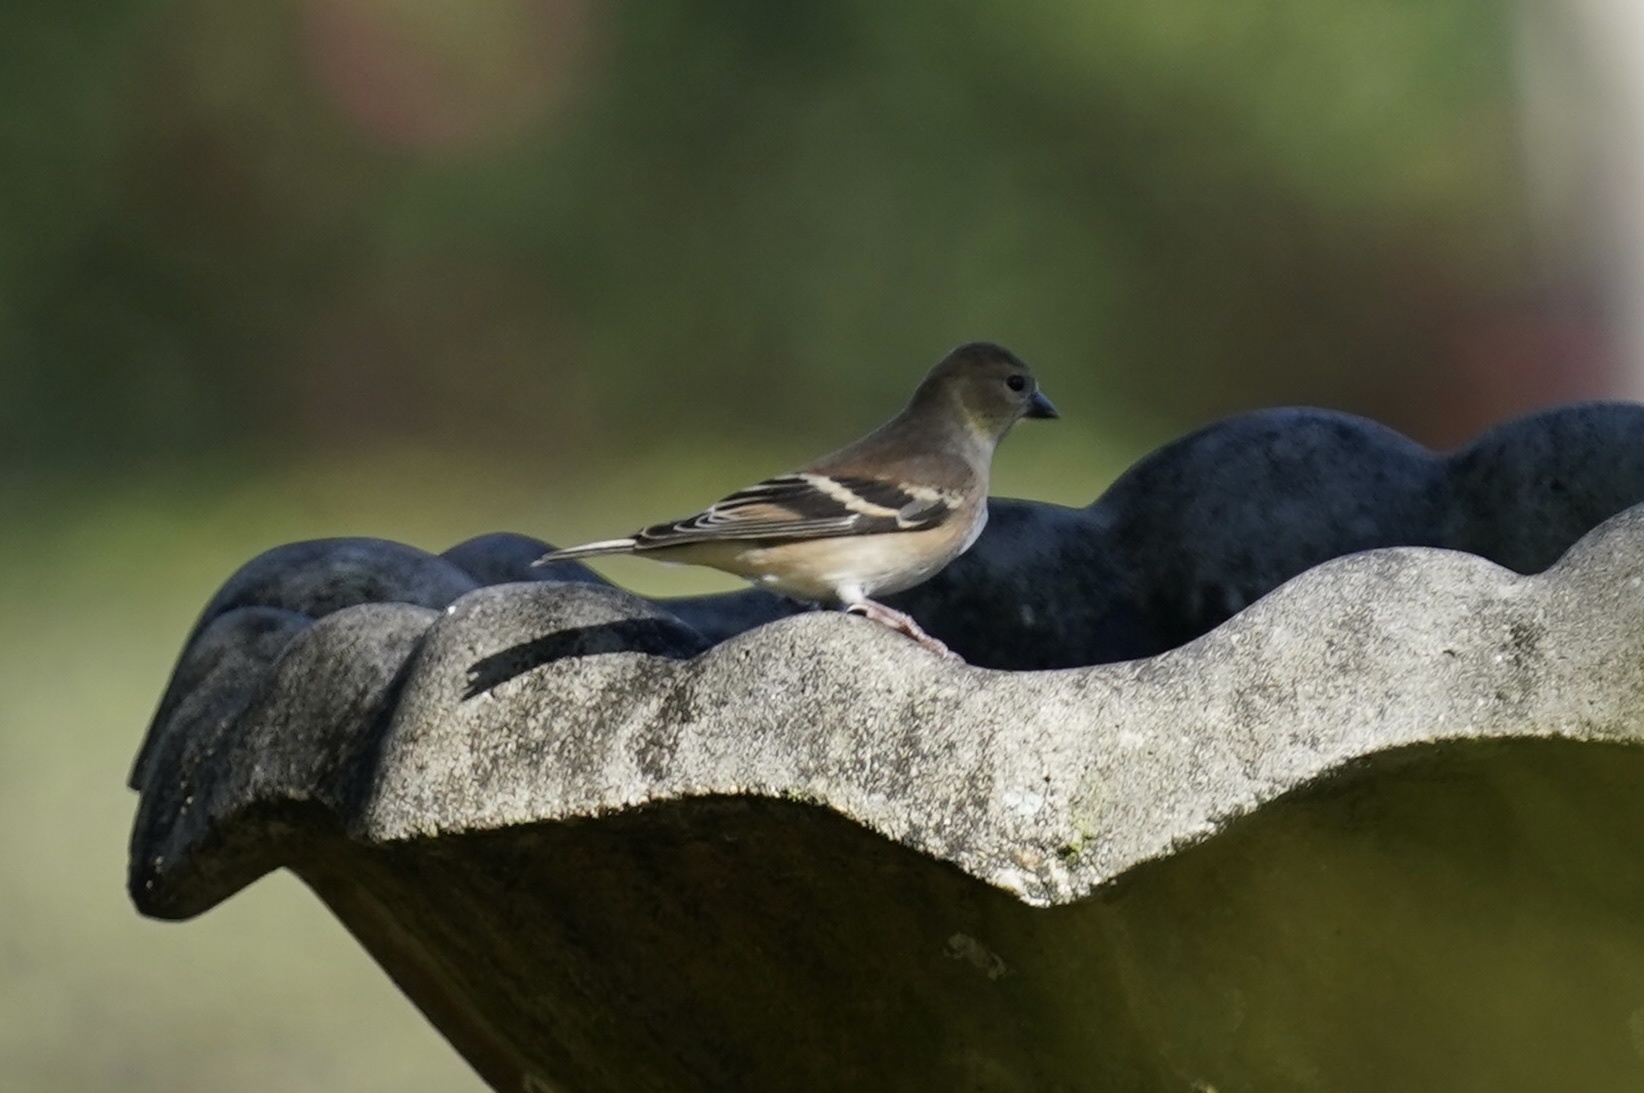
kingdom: Animalia
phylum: Chordata
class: Aves
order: Passeriformes
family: Fringillidae
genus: Spinus
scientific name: Spinus tristis
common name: American goldfinch
